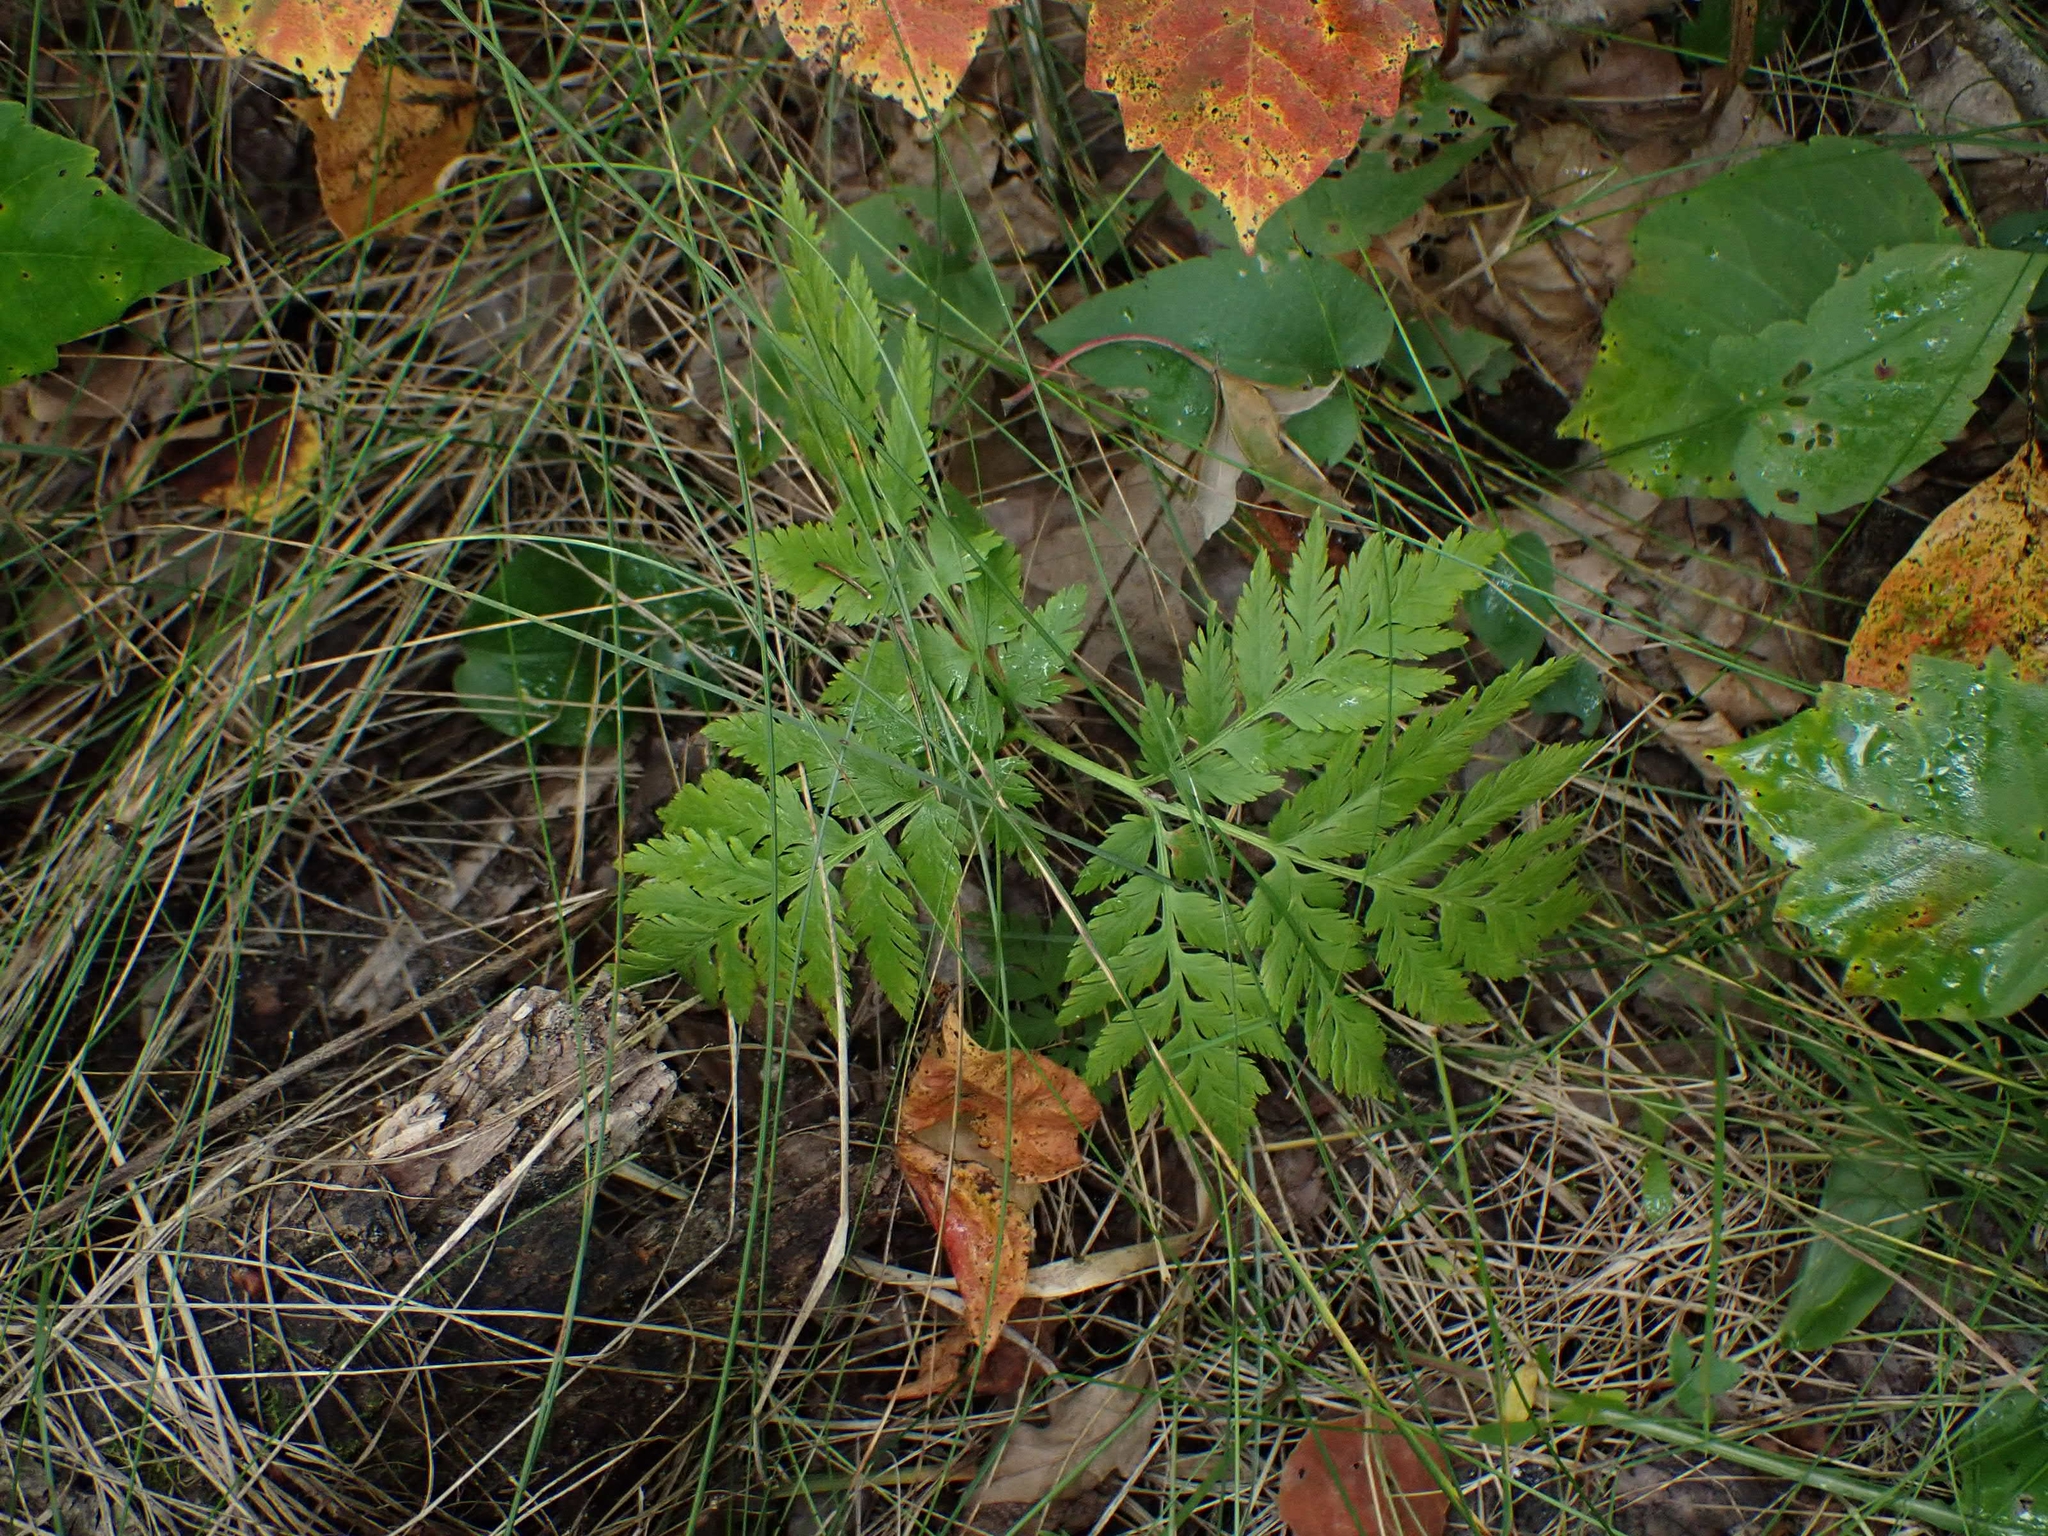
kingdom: Plantae
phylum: Tracheophyta
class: Polypodiopsida
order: Ophioglossales
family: Ophioglossaceae
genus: Botrypus
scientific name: Botrypus virginianus
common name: Common grapefern
